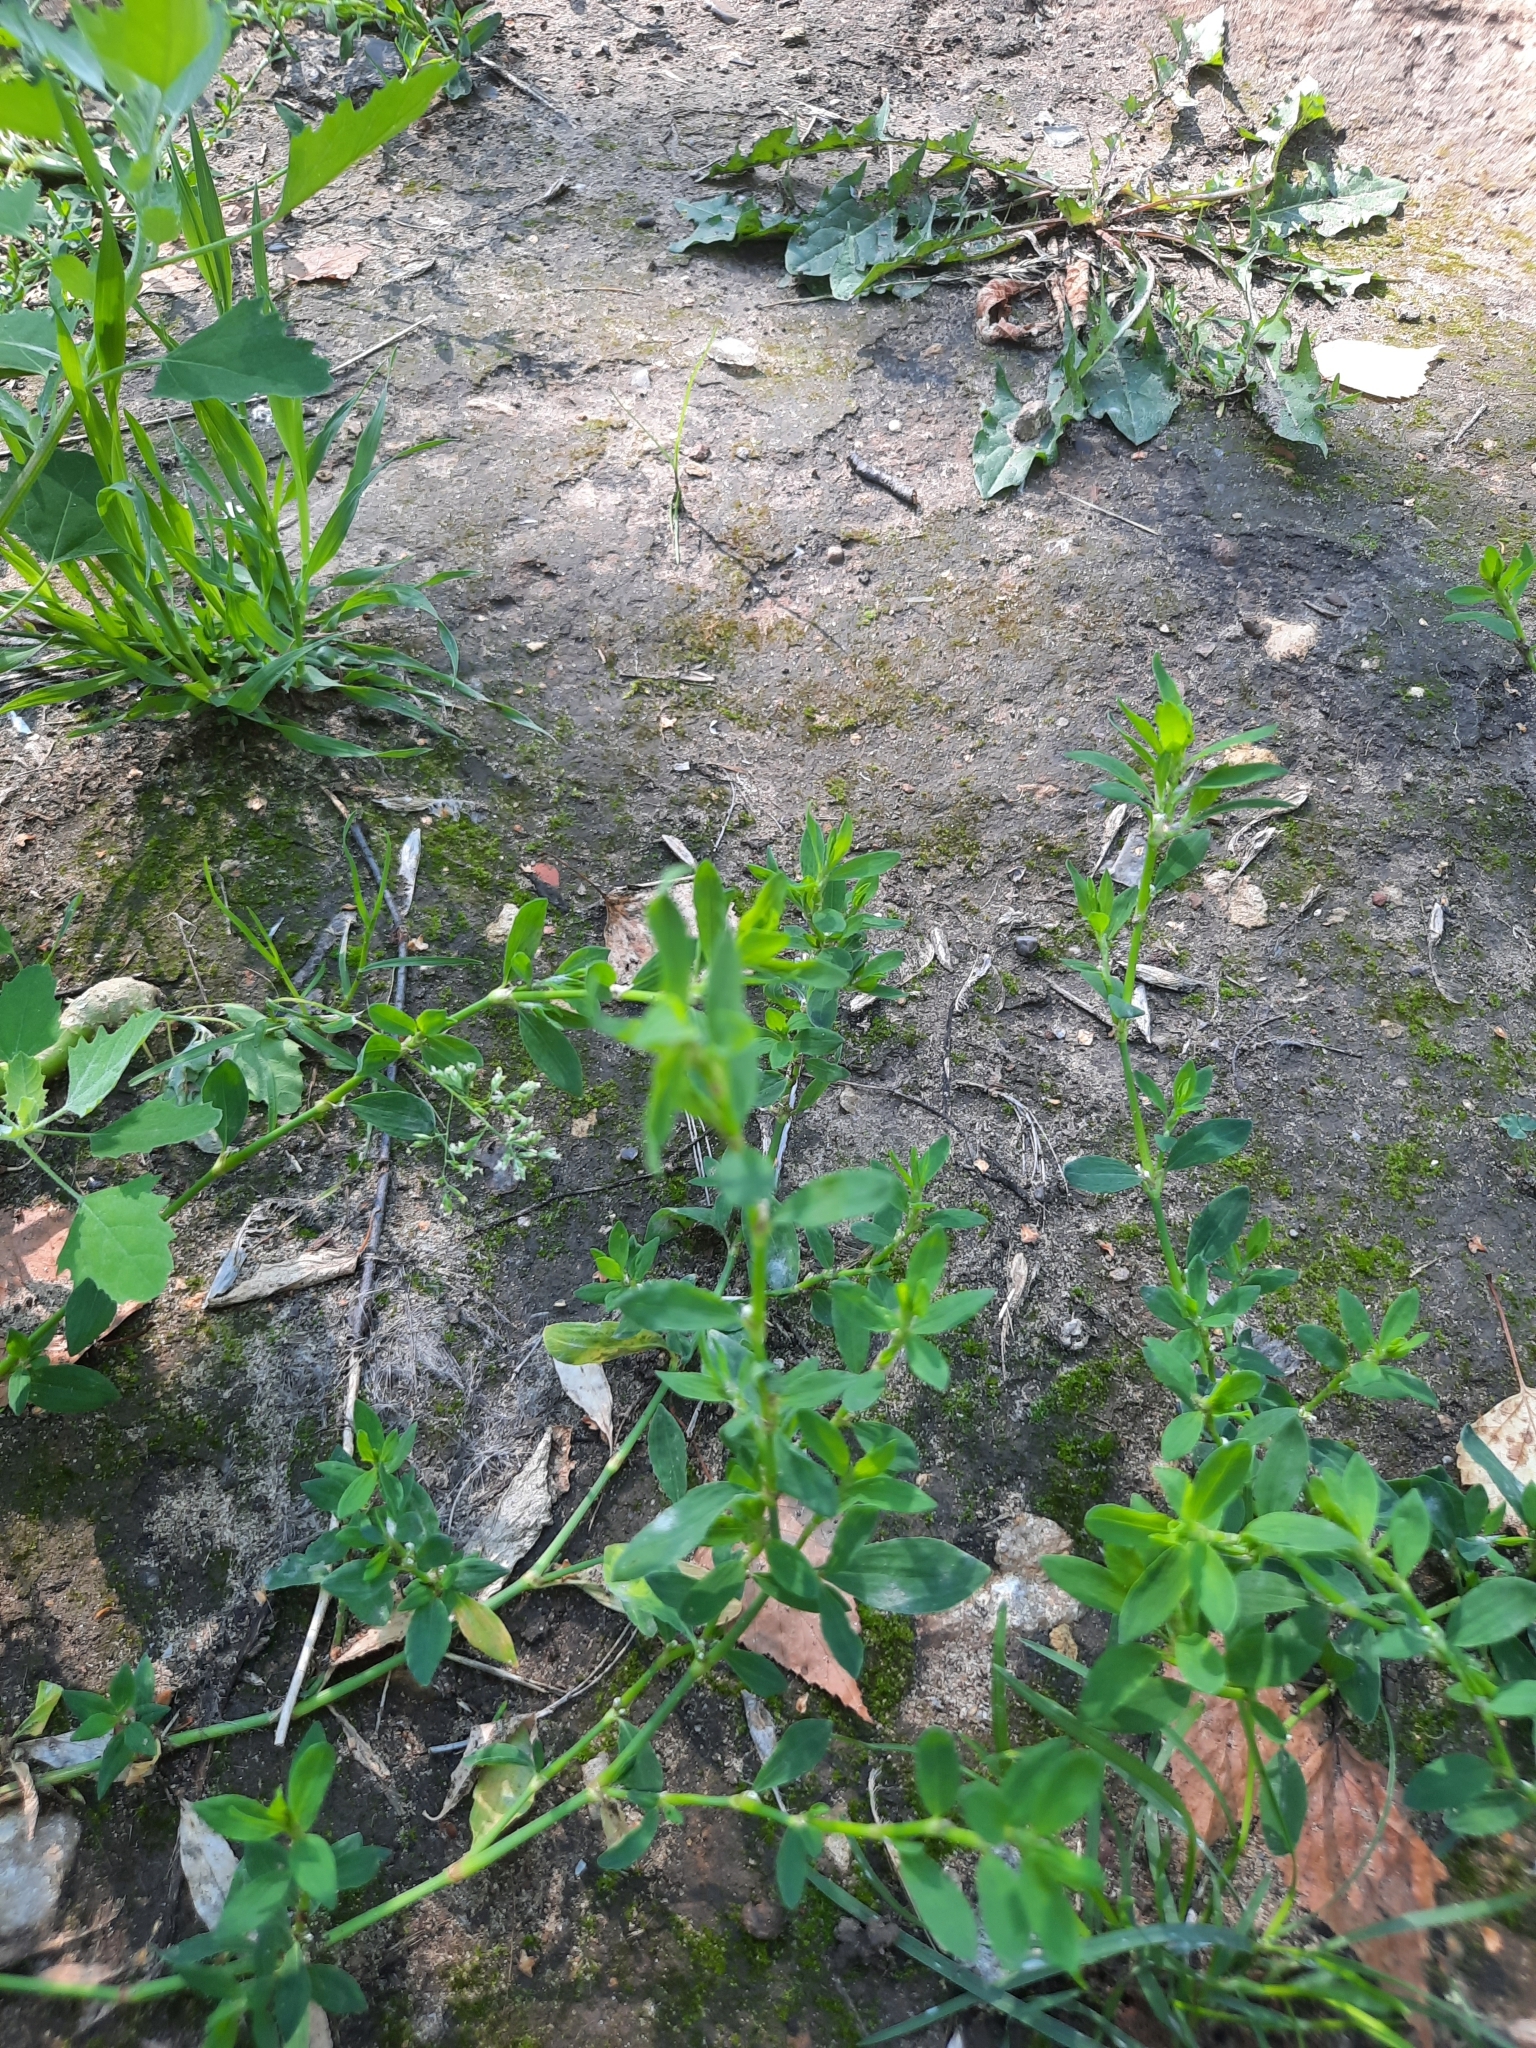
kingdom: Plantae
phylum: Tracheophyta
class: Magnoliopsida
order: Caryophyllales
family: Polygonaceae
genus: Polygonum
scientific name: Polygonum
